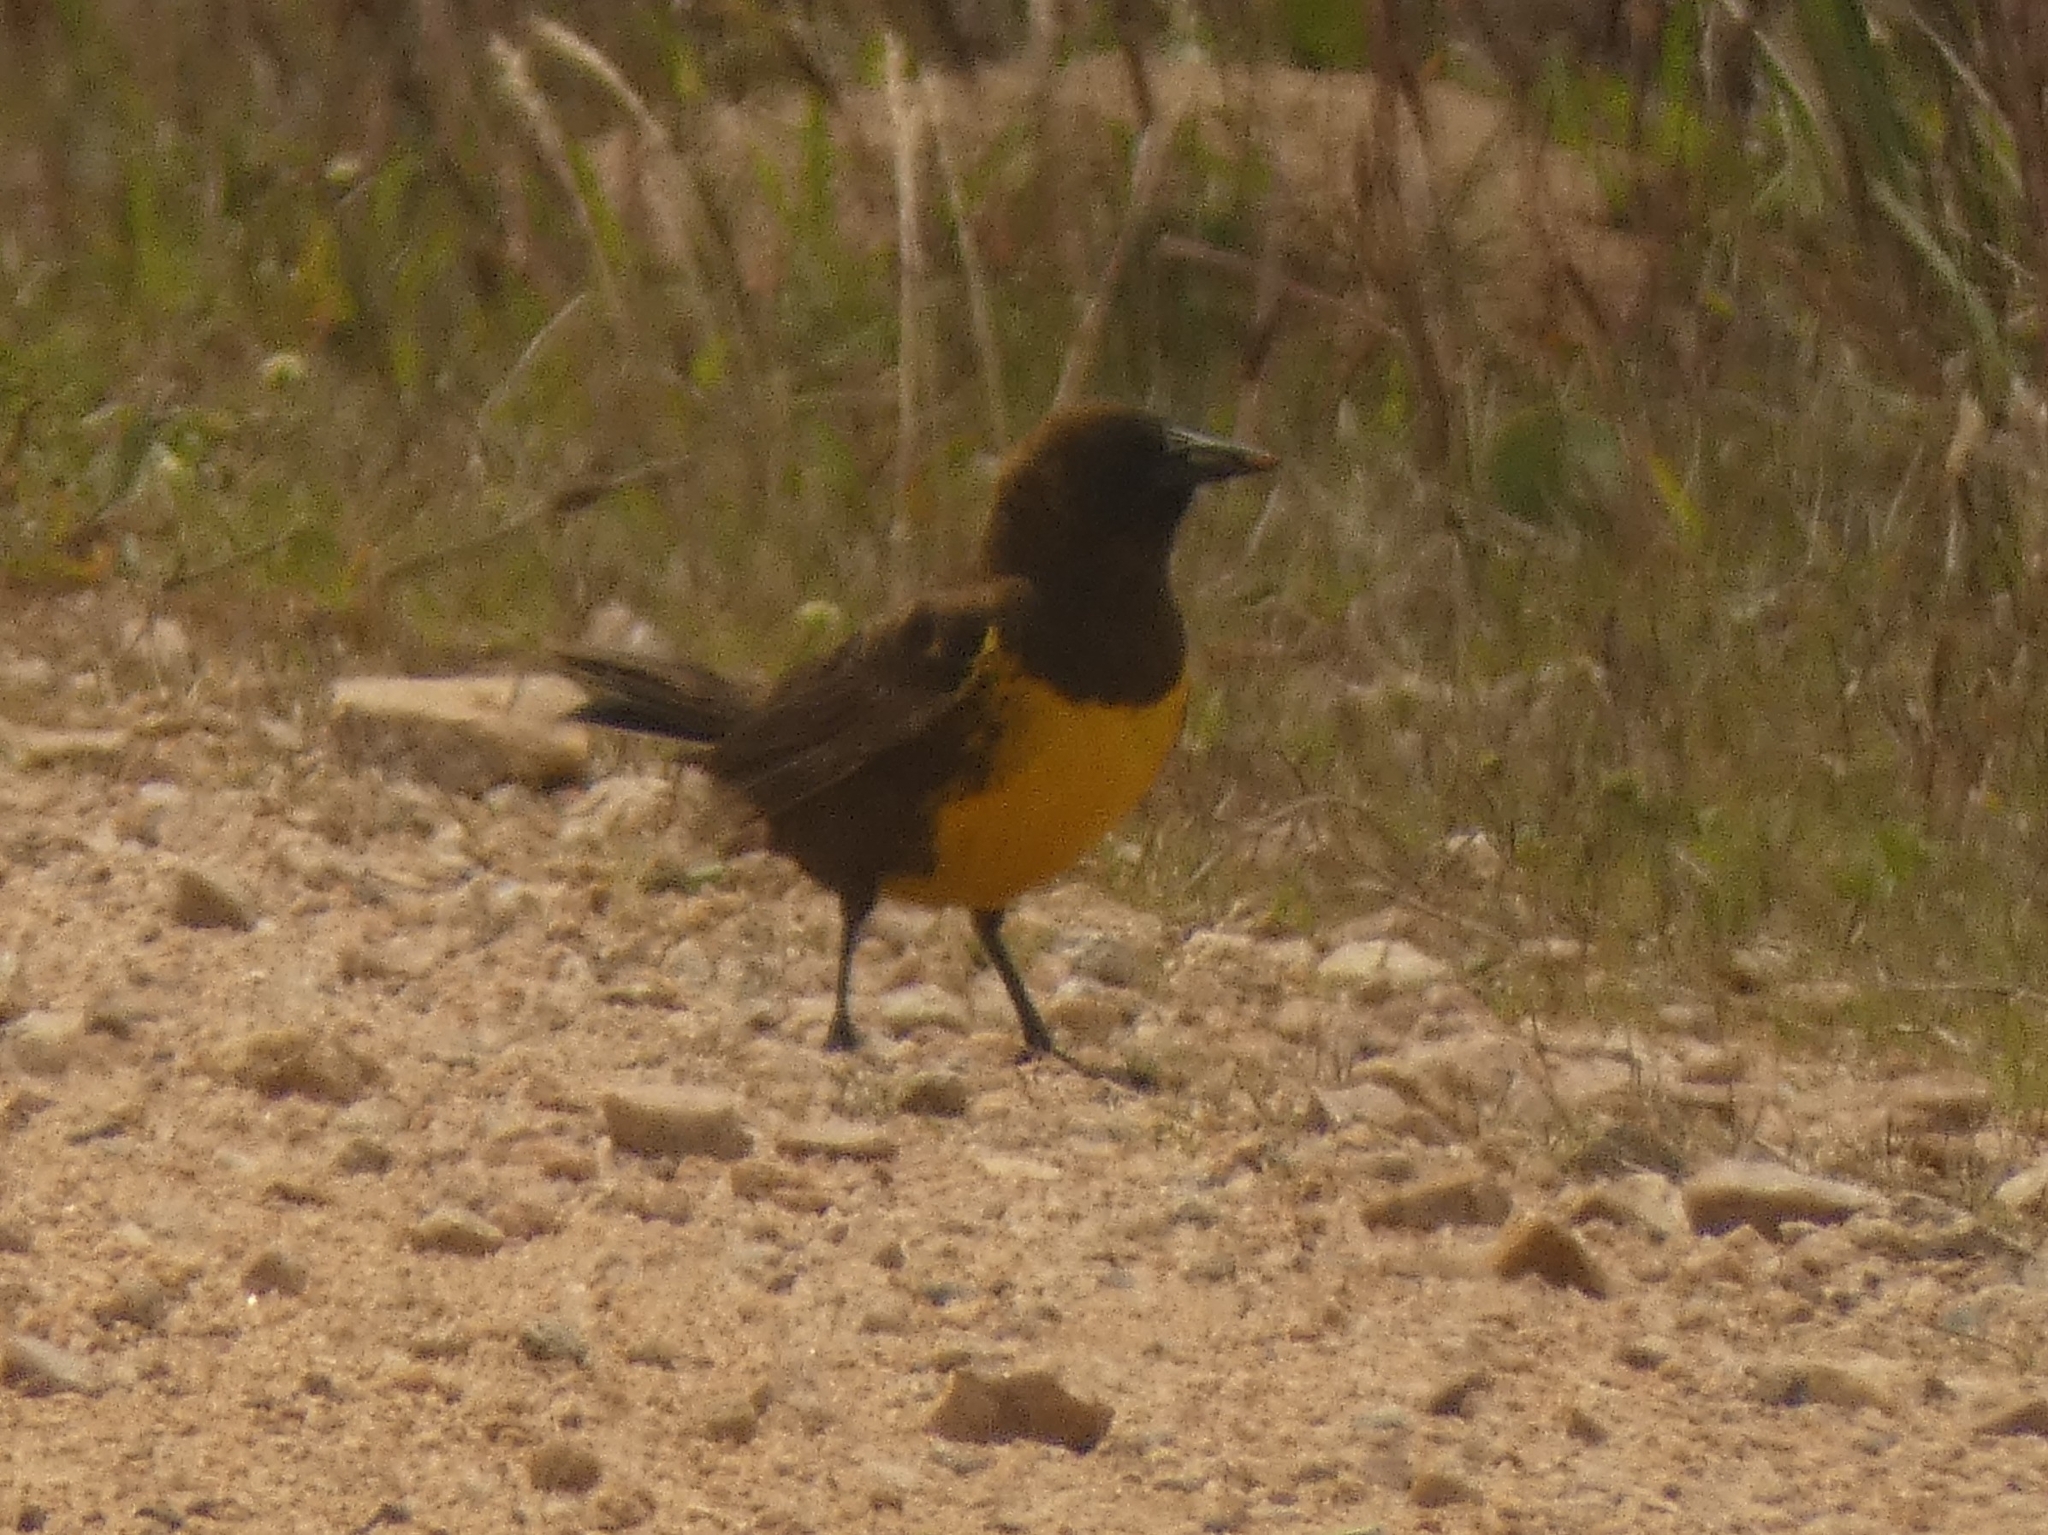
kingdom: Animalia
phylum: Chordata
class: Aves
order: Passeriformes
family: Icteridae
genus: Pseudoleistes
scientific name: Pseudoleistes virescens
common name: Brown-and-yellow marshbird
